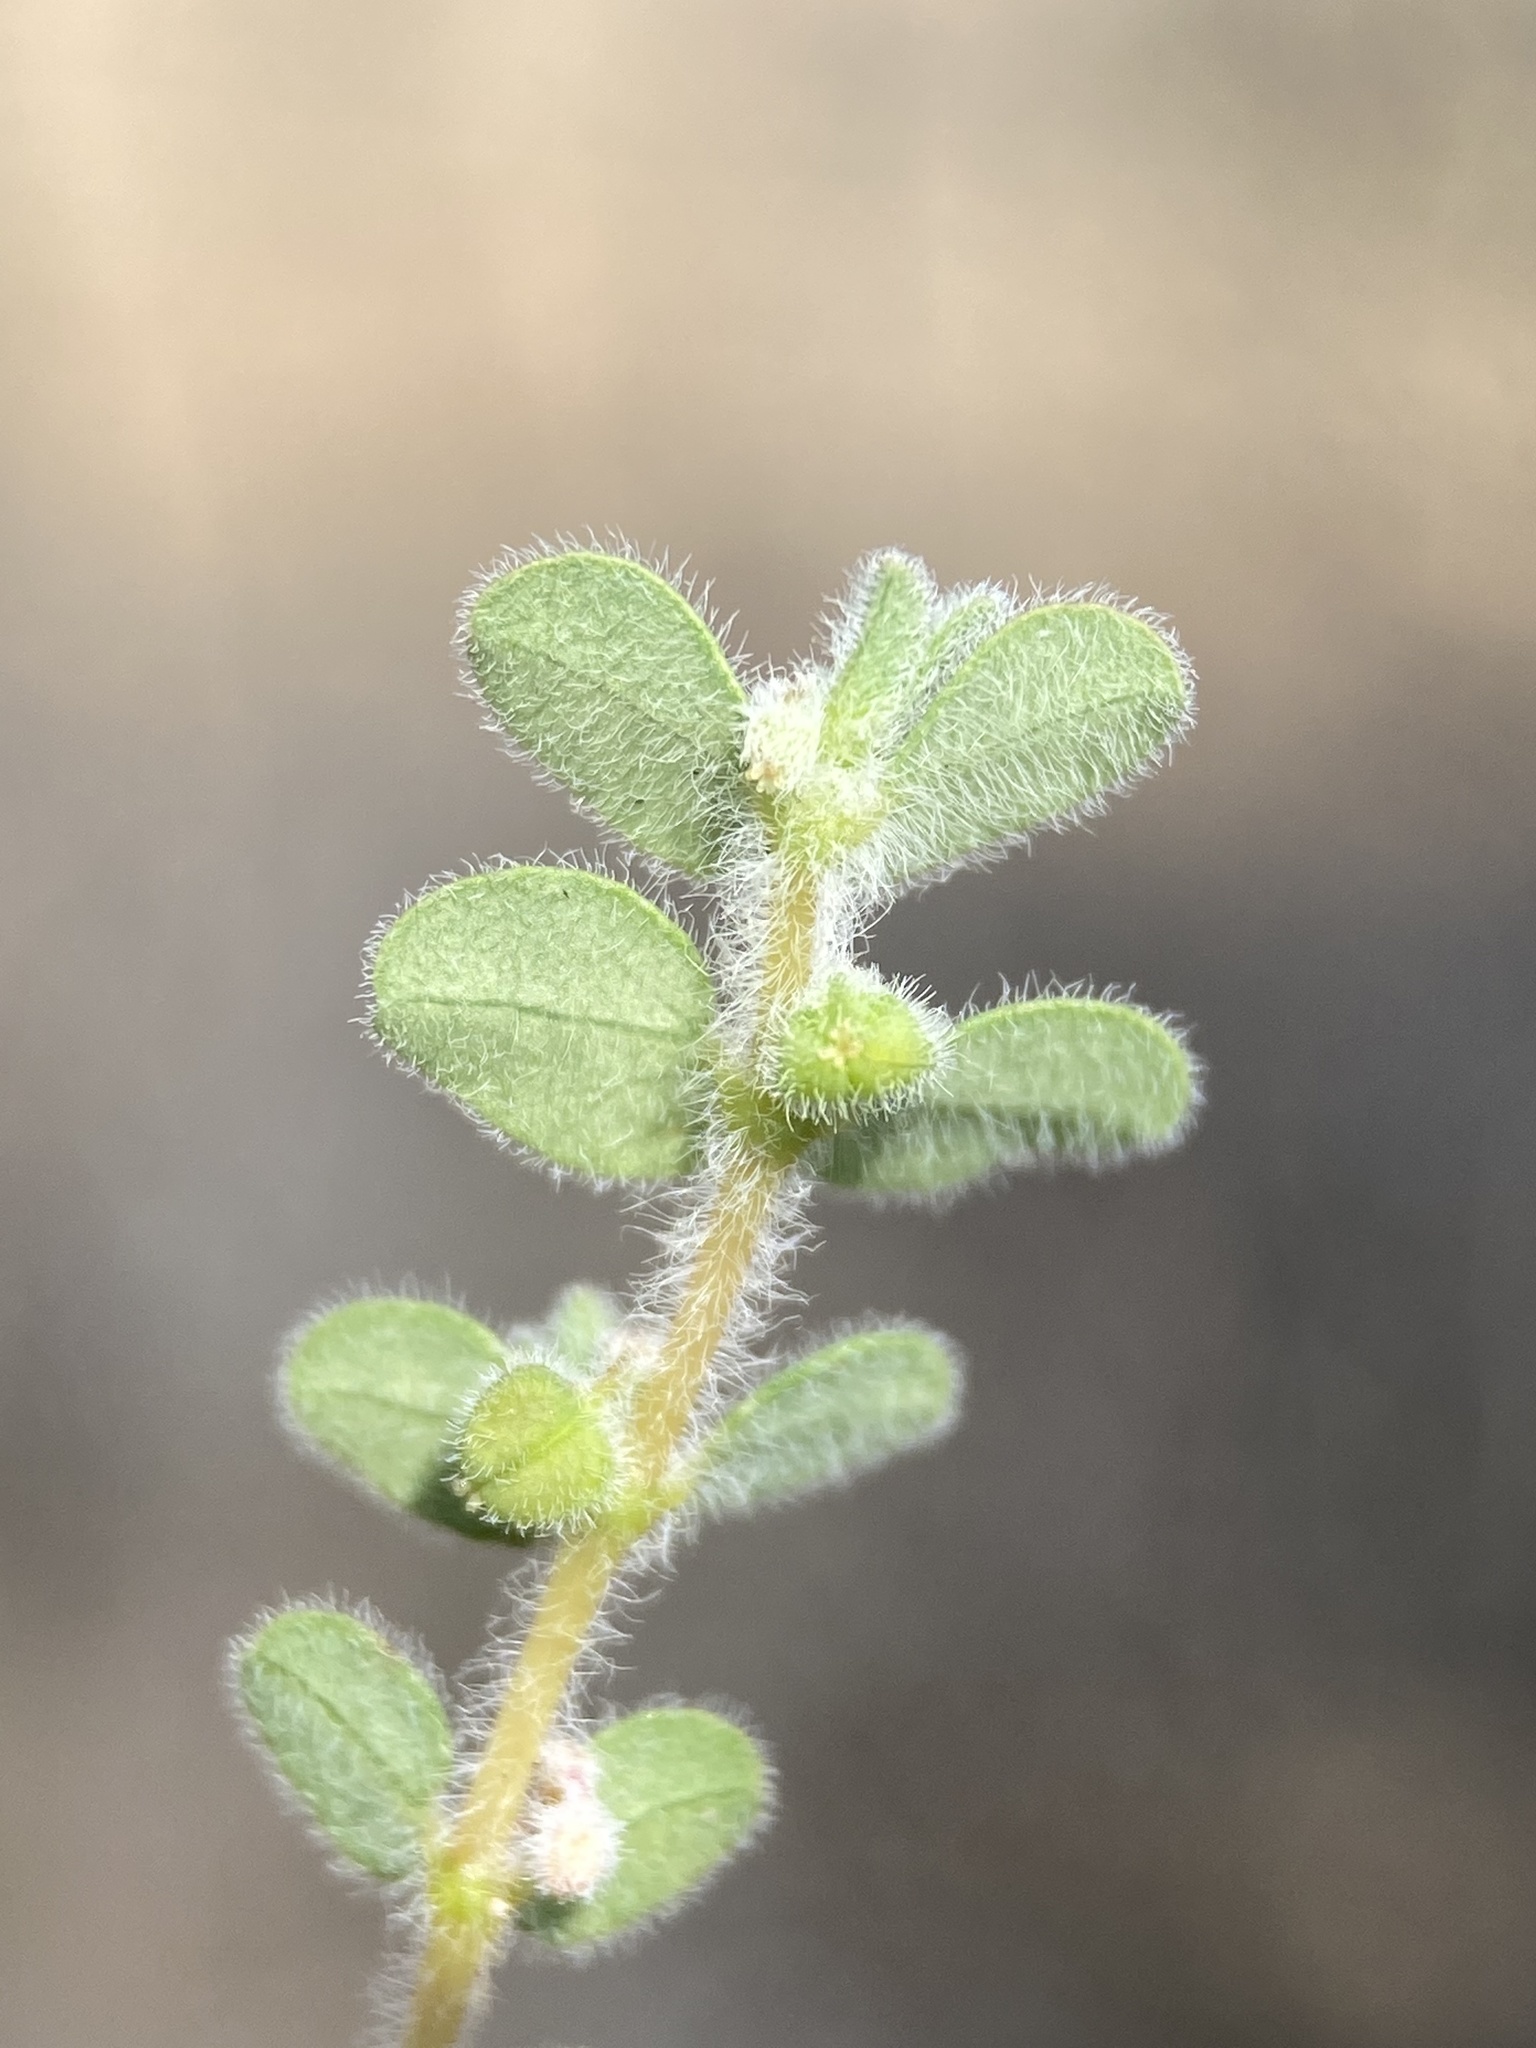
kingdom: Plantae
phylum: Tracheophyta
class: Magnoliopsida
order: Malpighiales
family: Euphorbiaceae
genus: Euphorbia
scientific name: Euphorbia laredana
